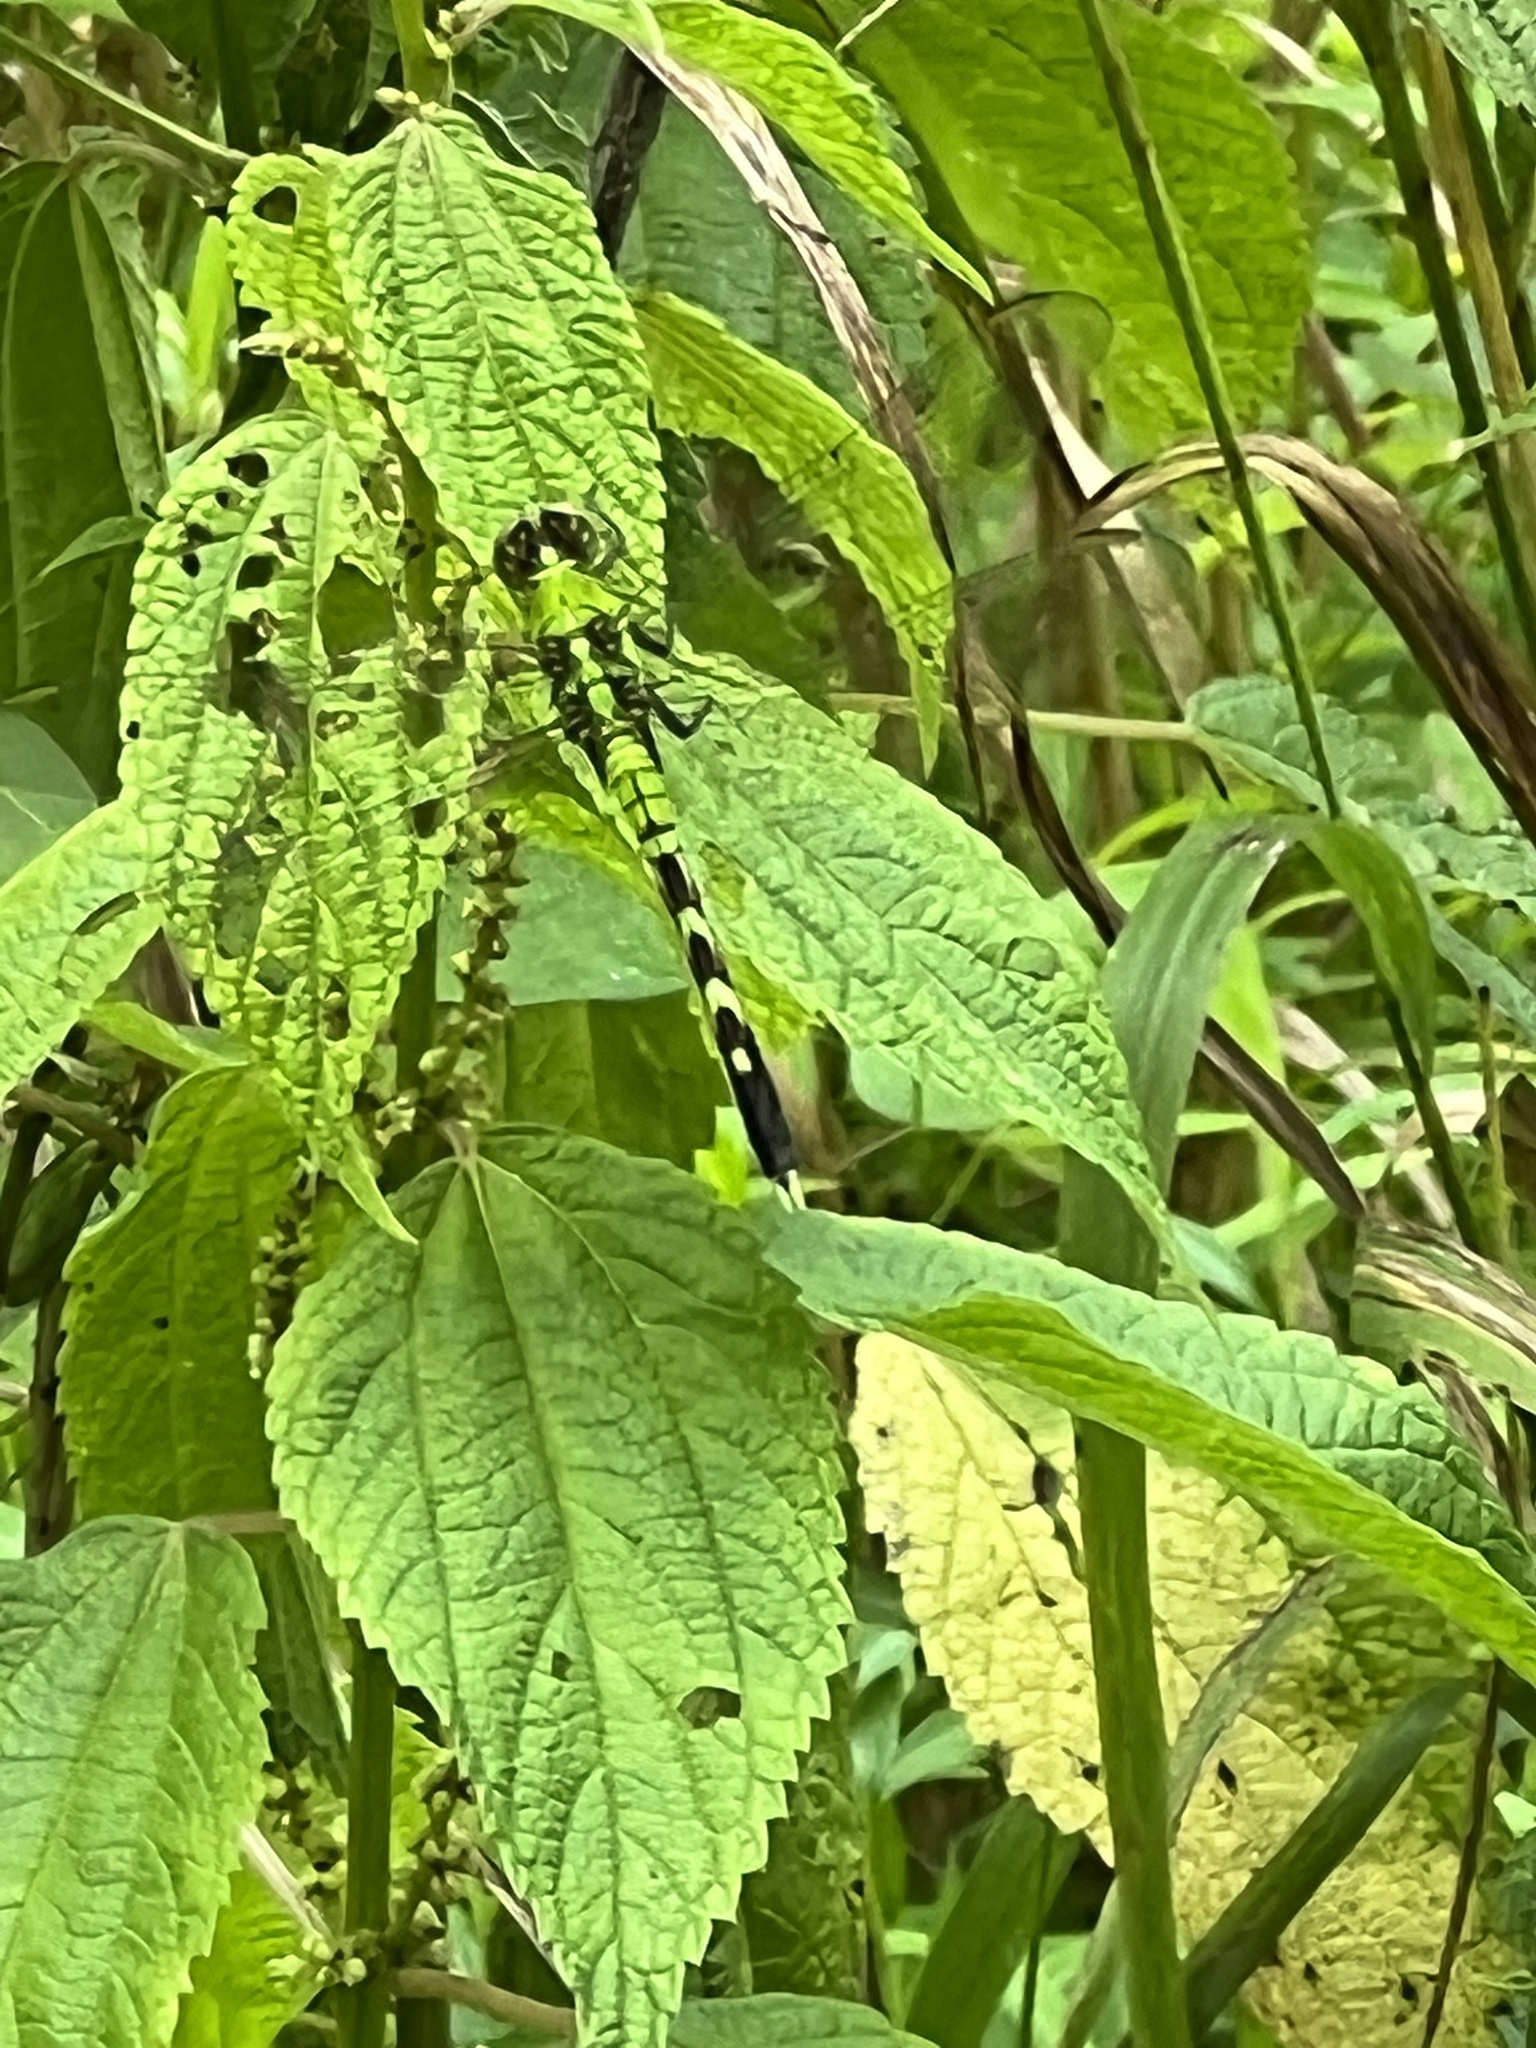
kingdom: Animalia
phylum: Arthropoda
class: Insecta
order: Odonata
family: Libellulidae
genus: Erythemis
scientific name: Erythemis simplicicollis
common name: Eastern pondhawk
